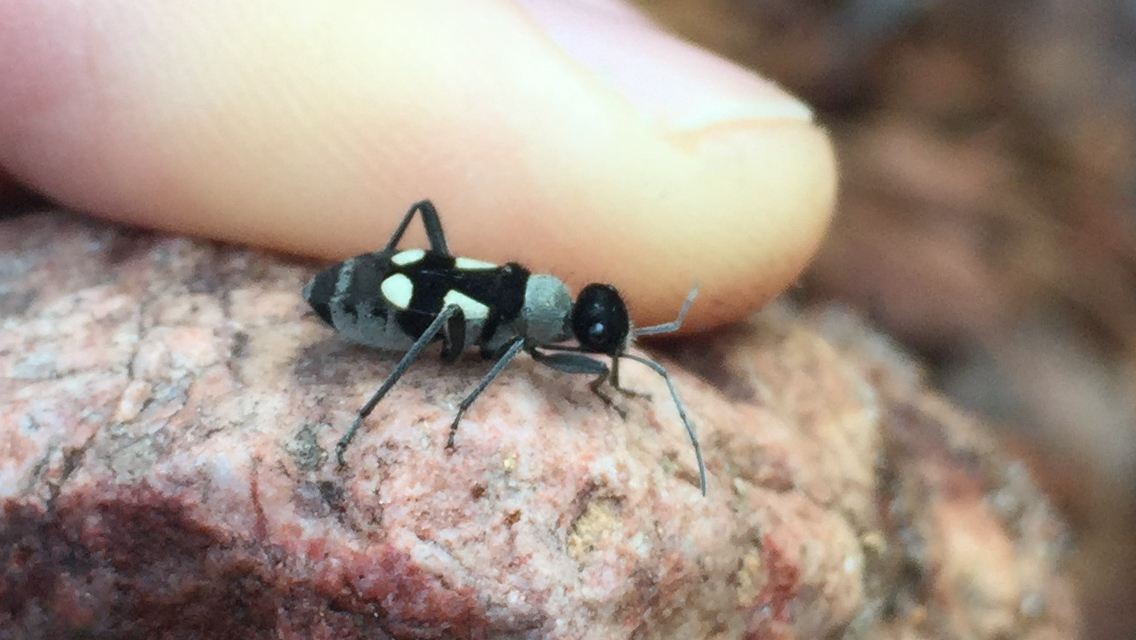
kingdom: Animalia
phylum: Arthropoda
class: Insecta
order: Hemiptera
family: Largidae
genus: Arhaphe
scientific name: Arhaphe arguta
